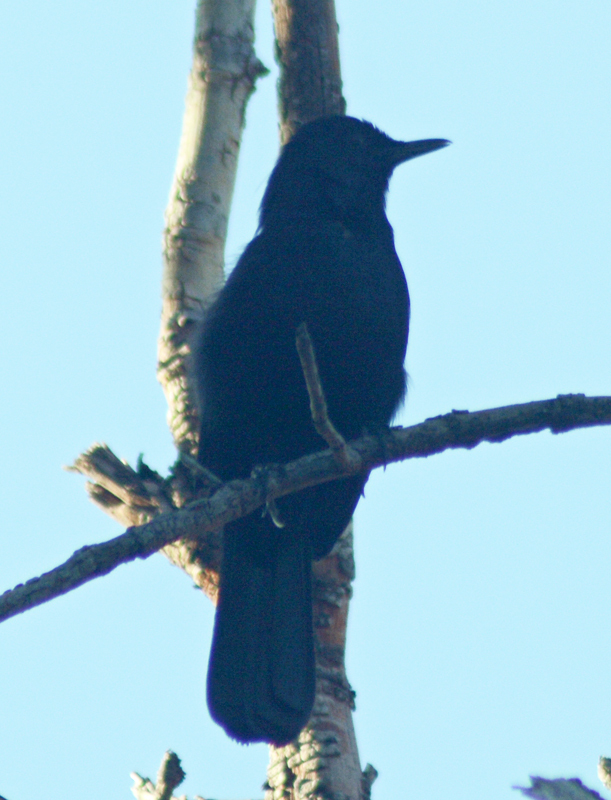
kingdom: Animalia
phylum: Chordata
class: Aves
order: Passeriformes
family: Mimidae
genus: Melanoptila
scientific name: Melanoptila glabrirostris
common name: Black catbird
